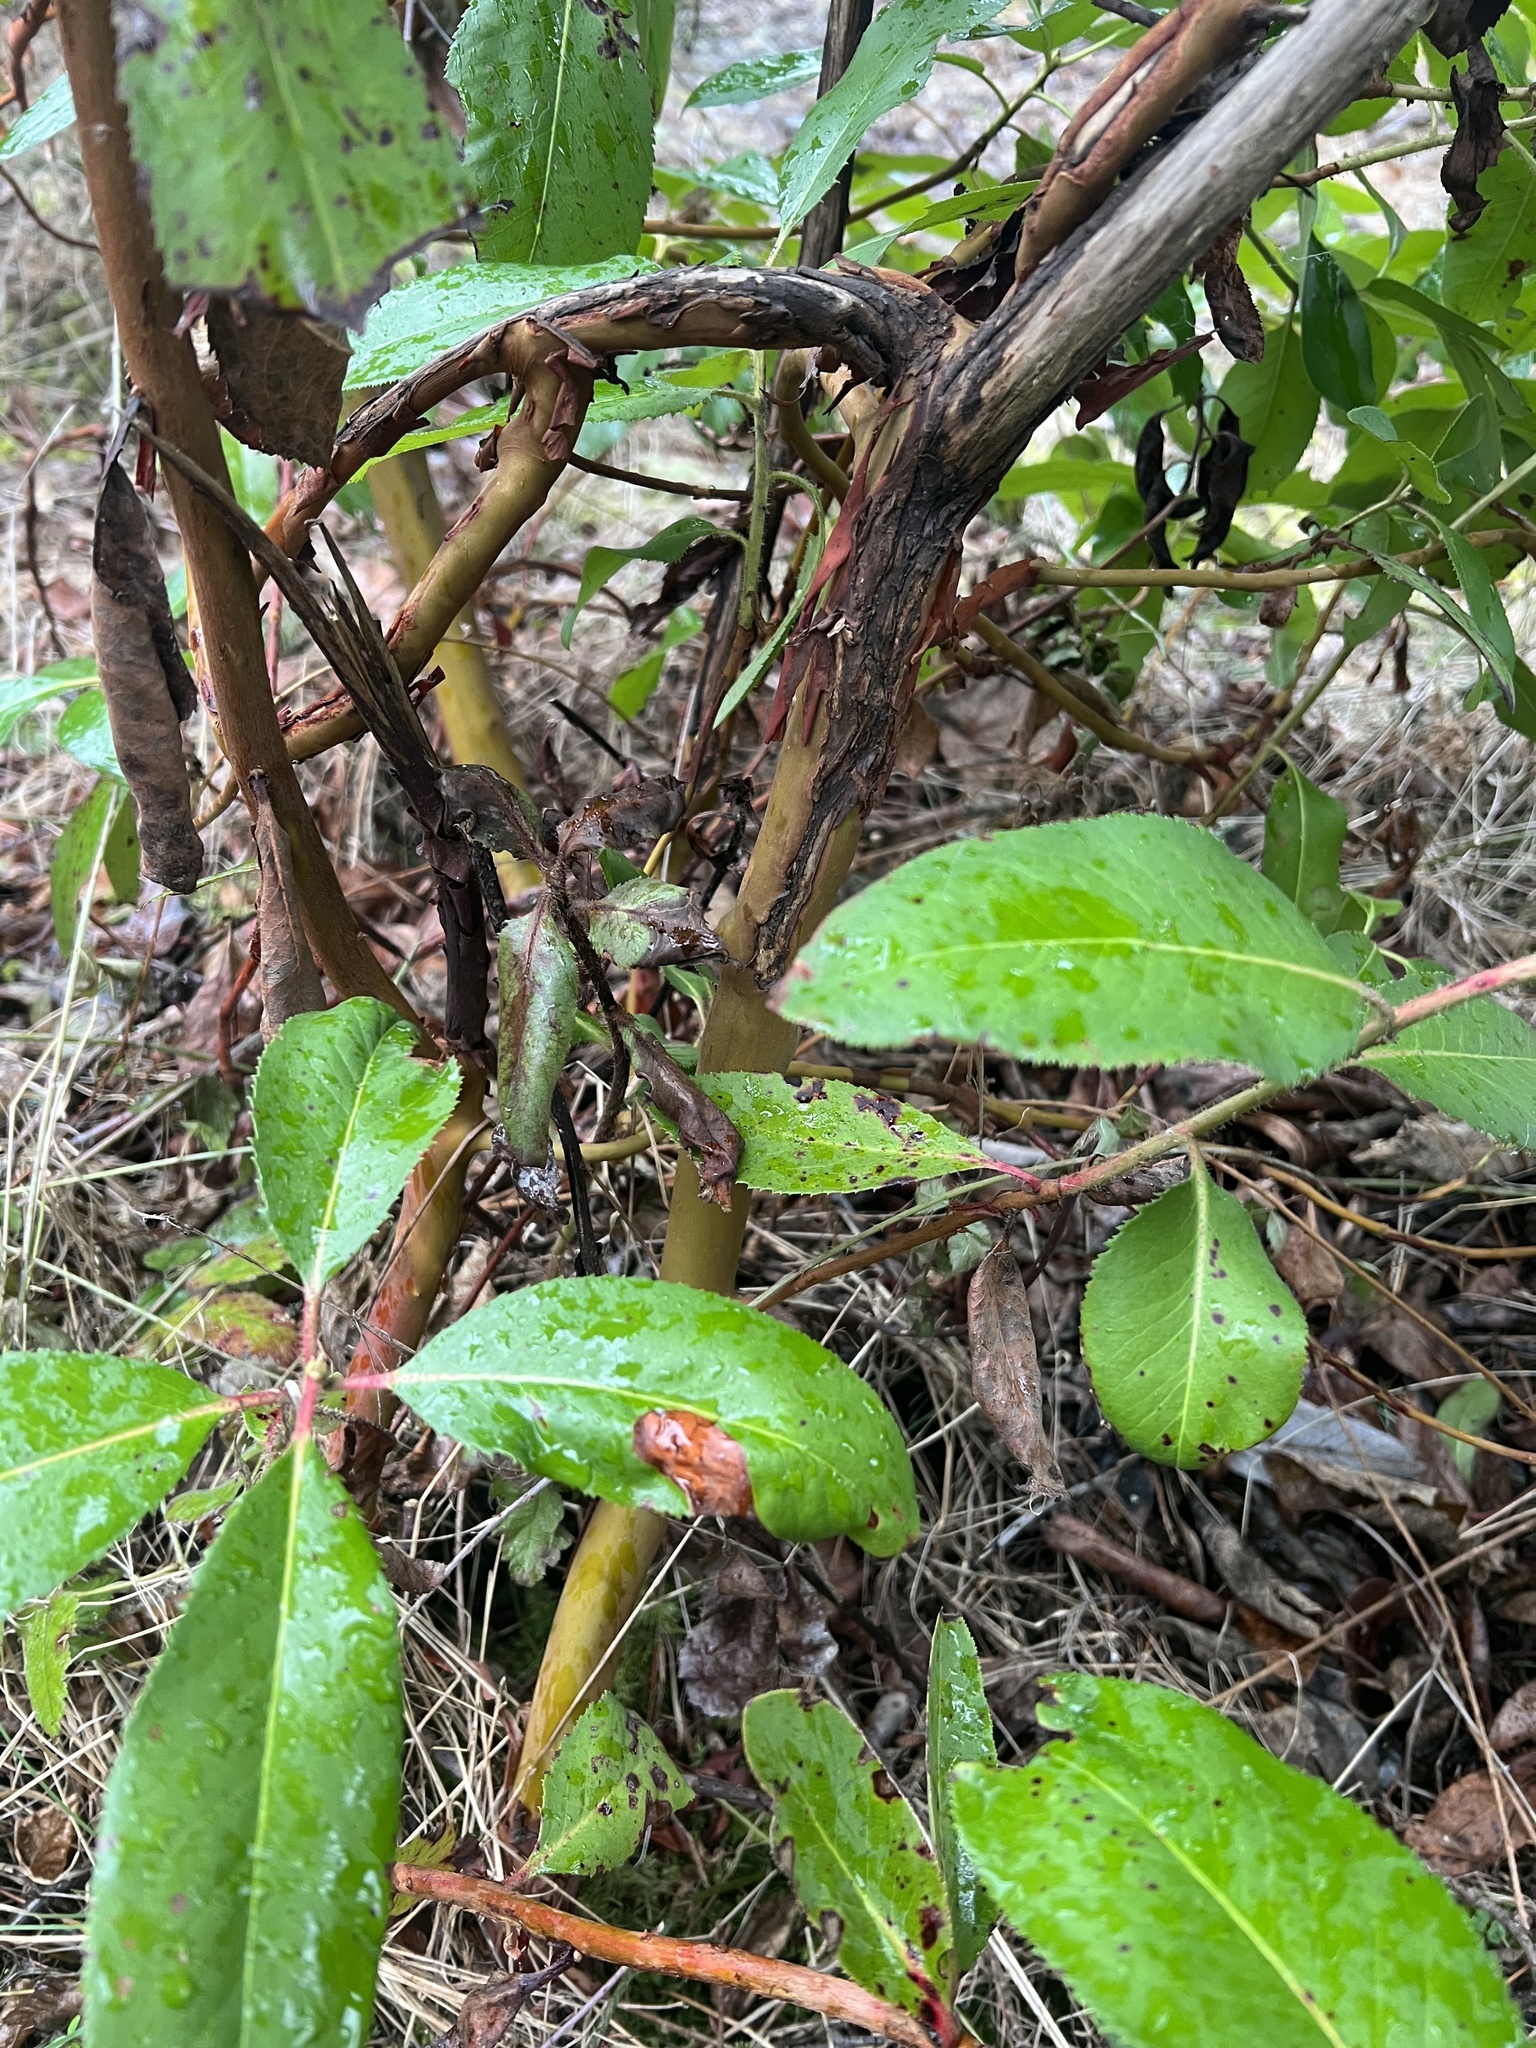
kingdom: Plantae
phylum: Tracheophyta
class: Magnoliopsida
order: Ericales
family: Ericaceae
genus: Arbutus
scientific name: Arbutus menziesii
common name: Pacific madrone
